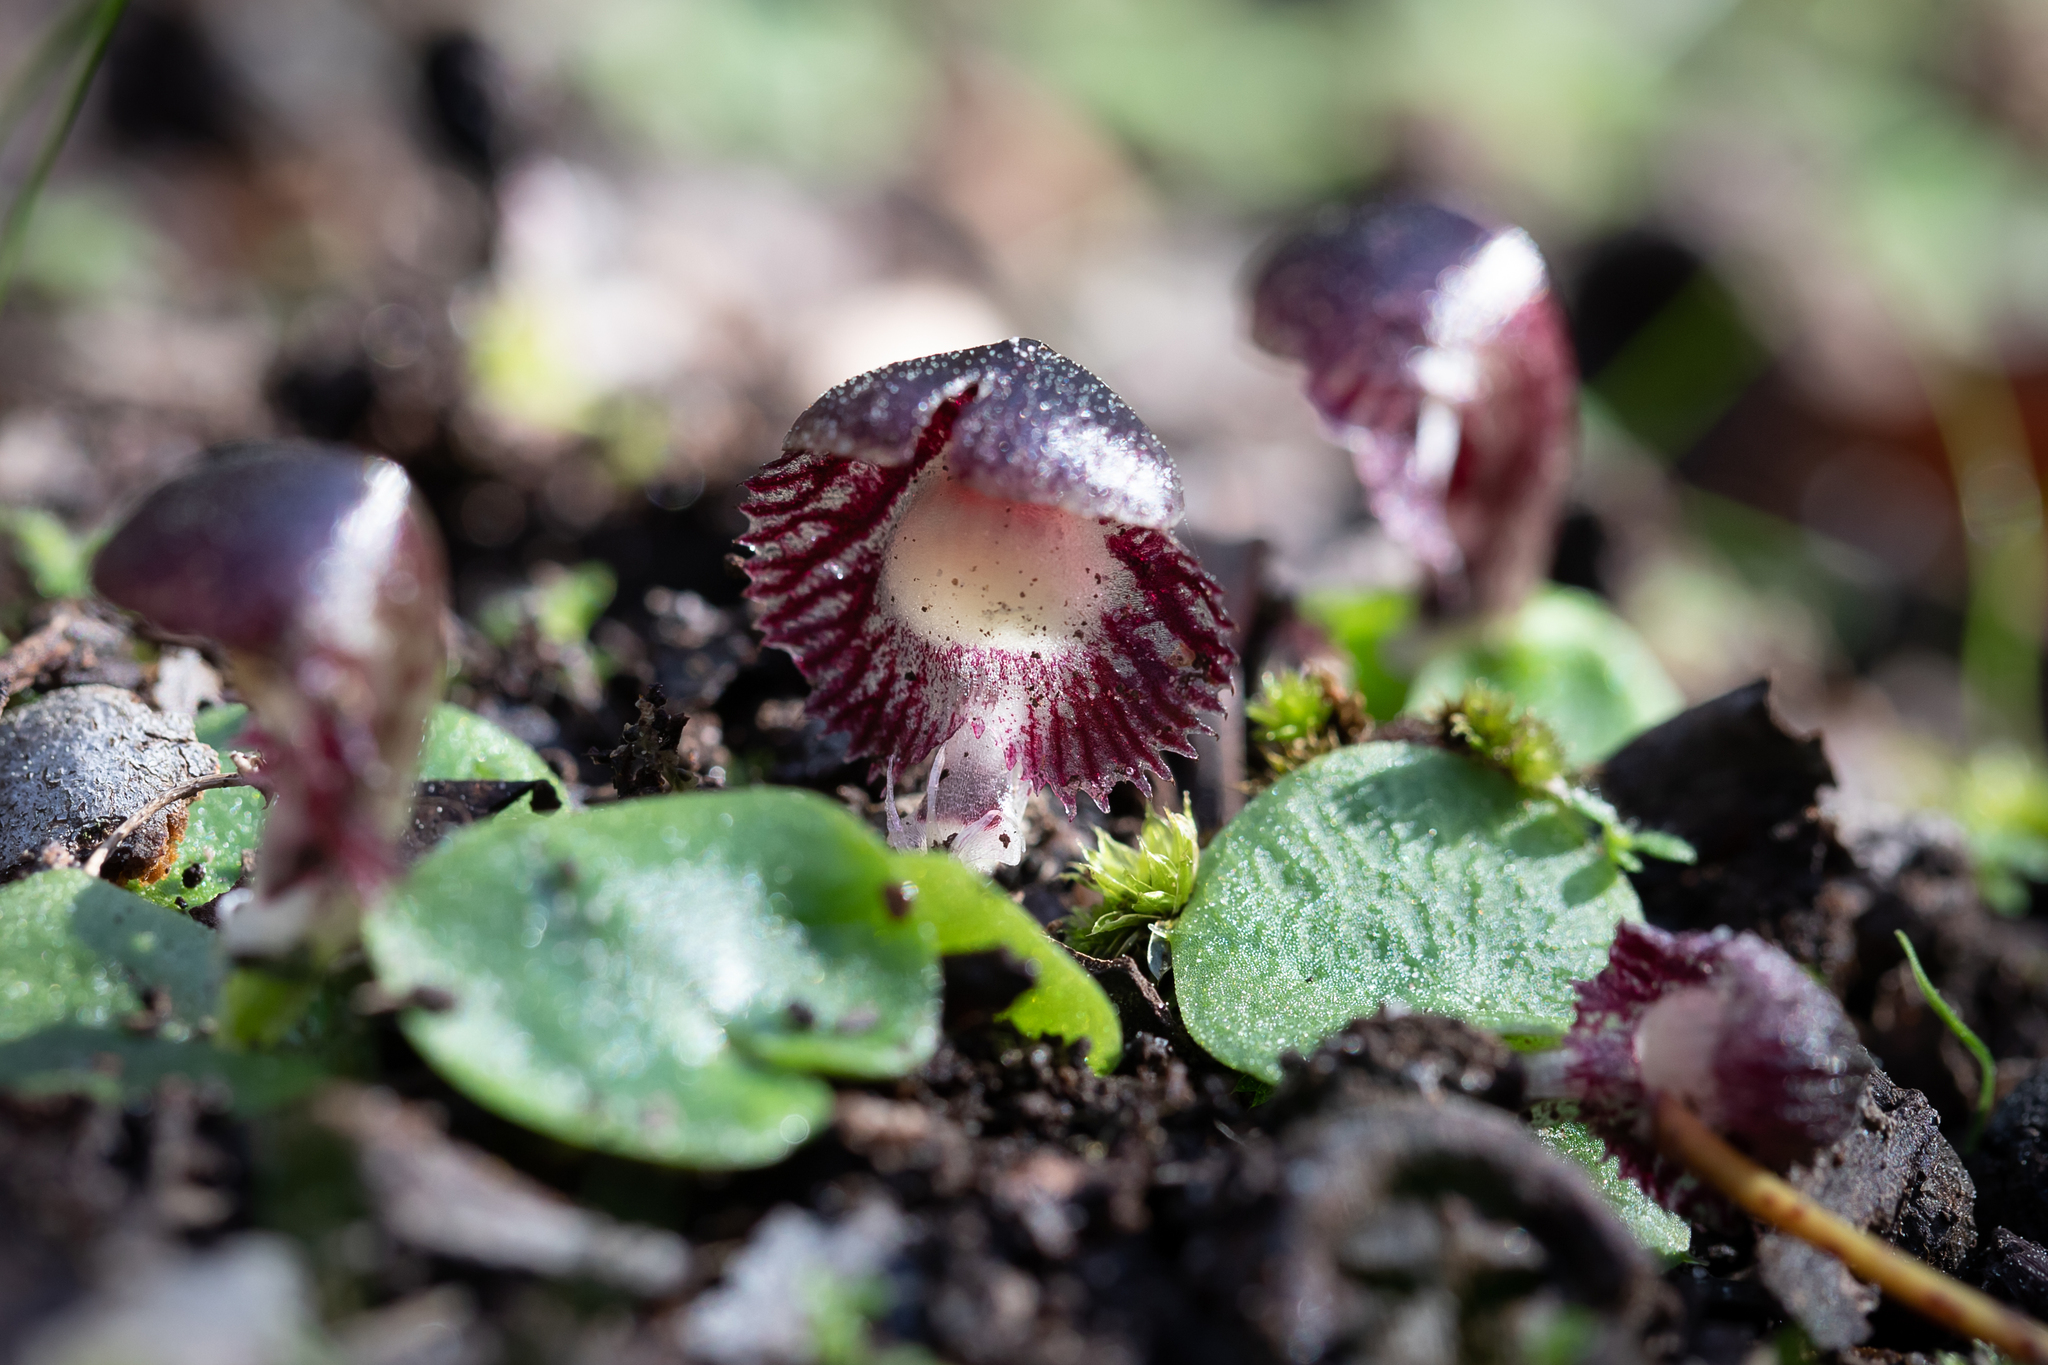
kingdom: Plantae
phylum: Tracheophyta
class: Liliopsida
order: Asparagales
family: Orchidaceae
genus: Corybas
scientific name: Corybas diemenicus
